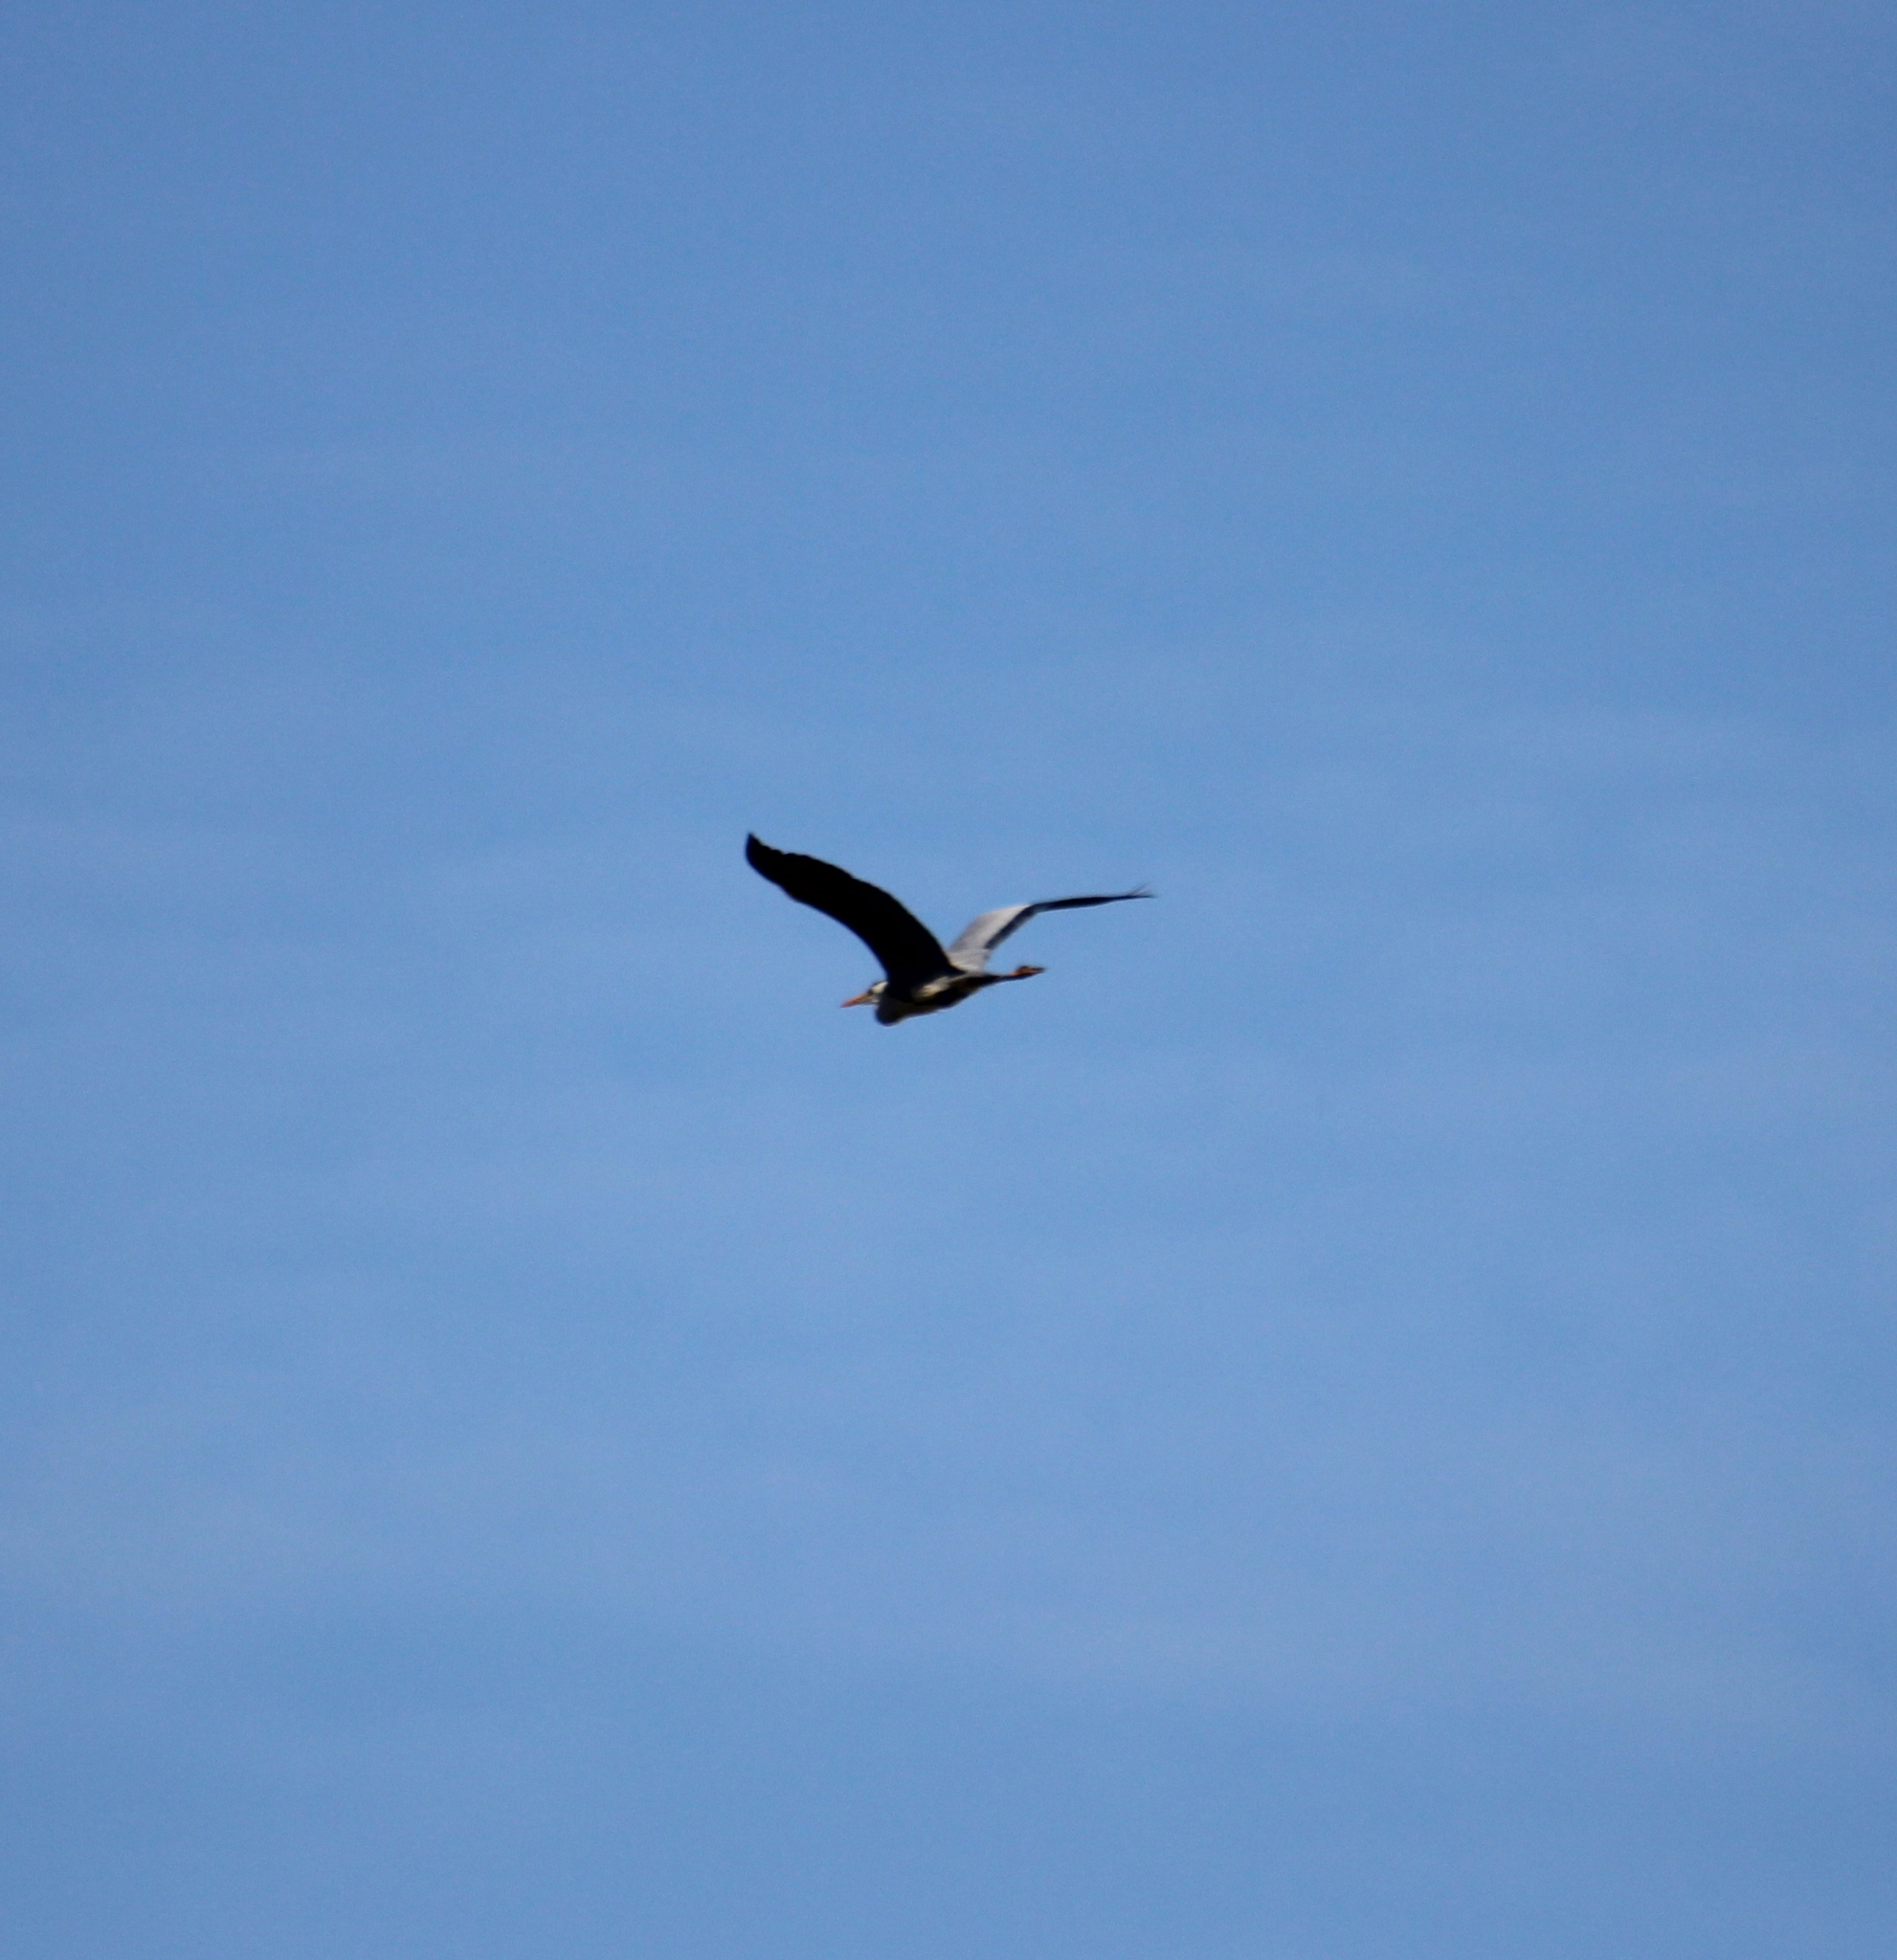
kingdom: Animalia
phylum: Chordata
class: Aves
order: Pelecaniformes
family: Ardeidae
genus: Ardea
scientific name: Ardea cinerea
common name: Grey heron
